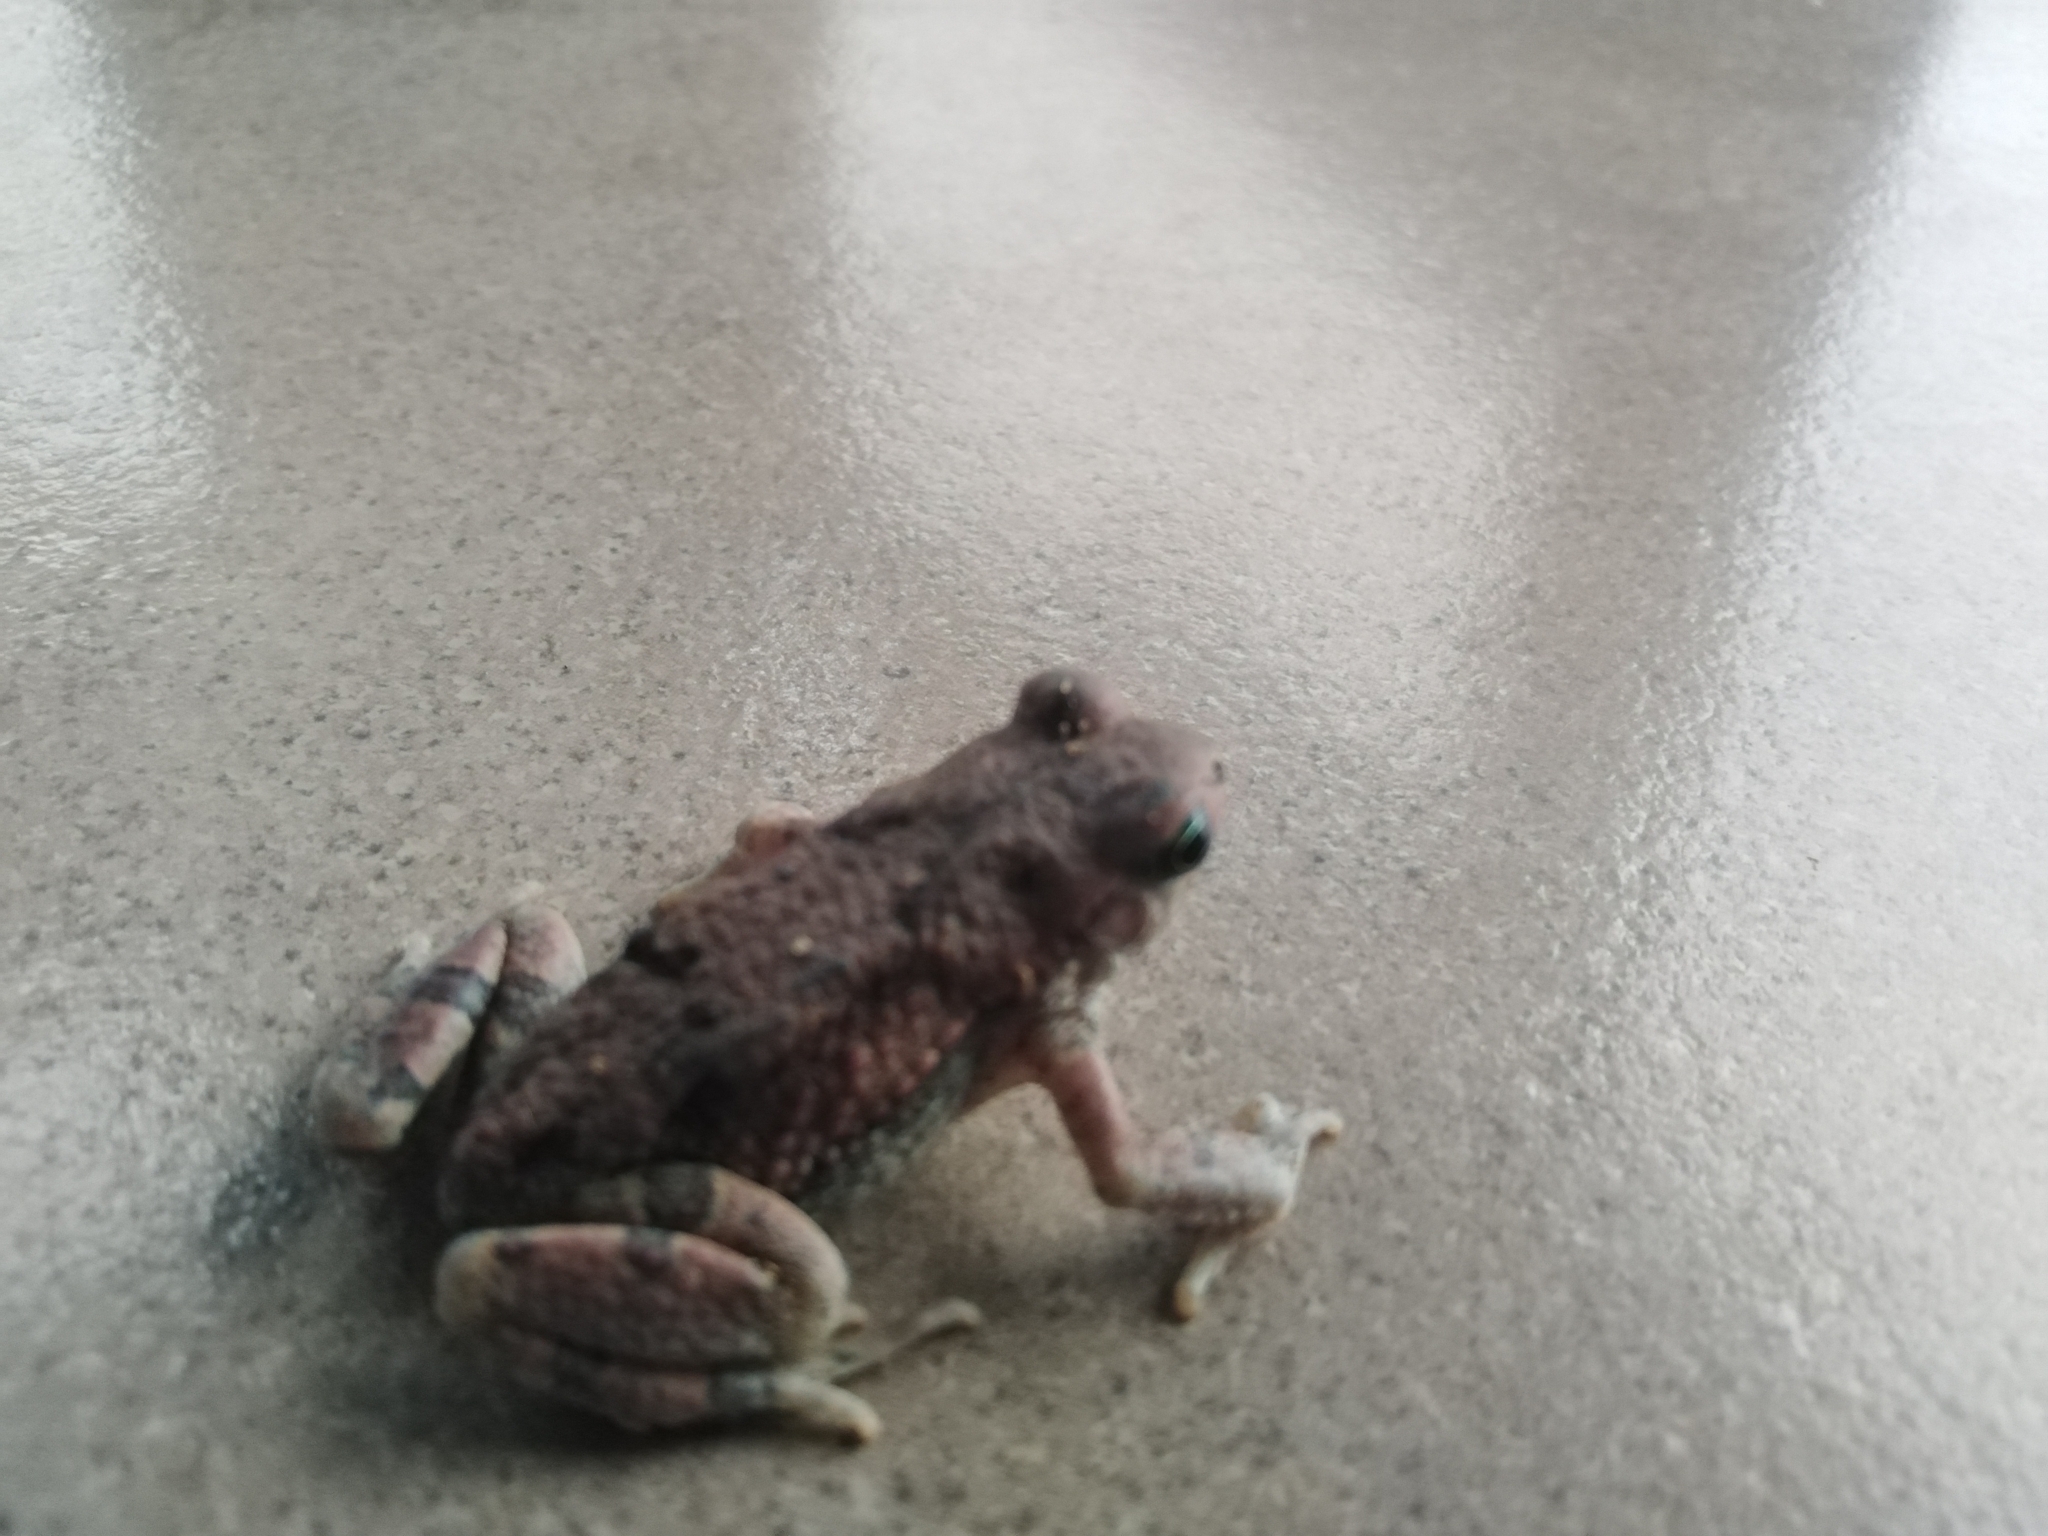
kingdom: Animalia
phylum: Chordata
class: Amphibia
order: Anura
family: Bufonidae
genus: Schismaderma
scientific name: Schismaderma carens
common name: African split-skin toad
